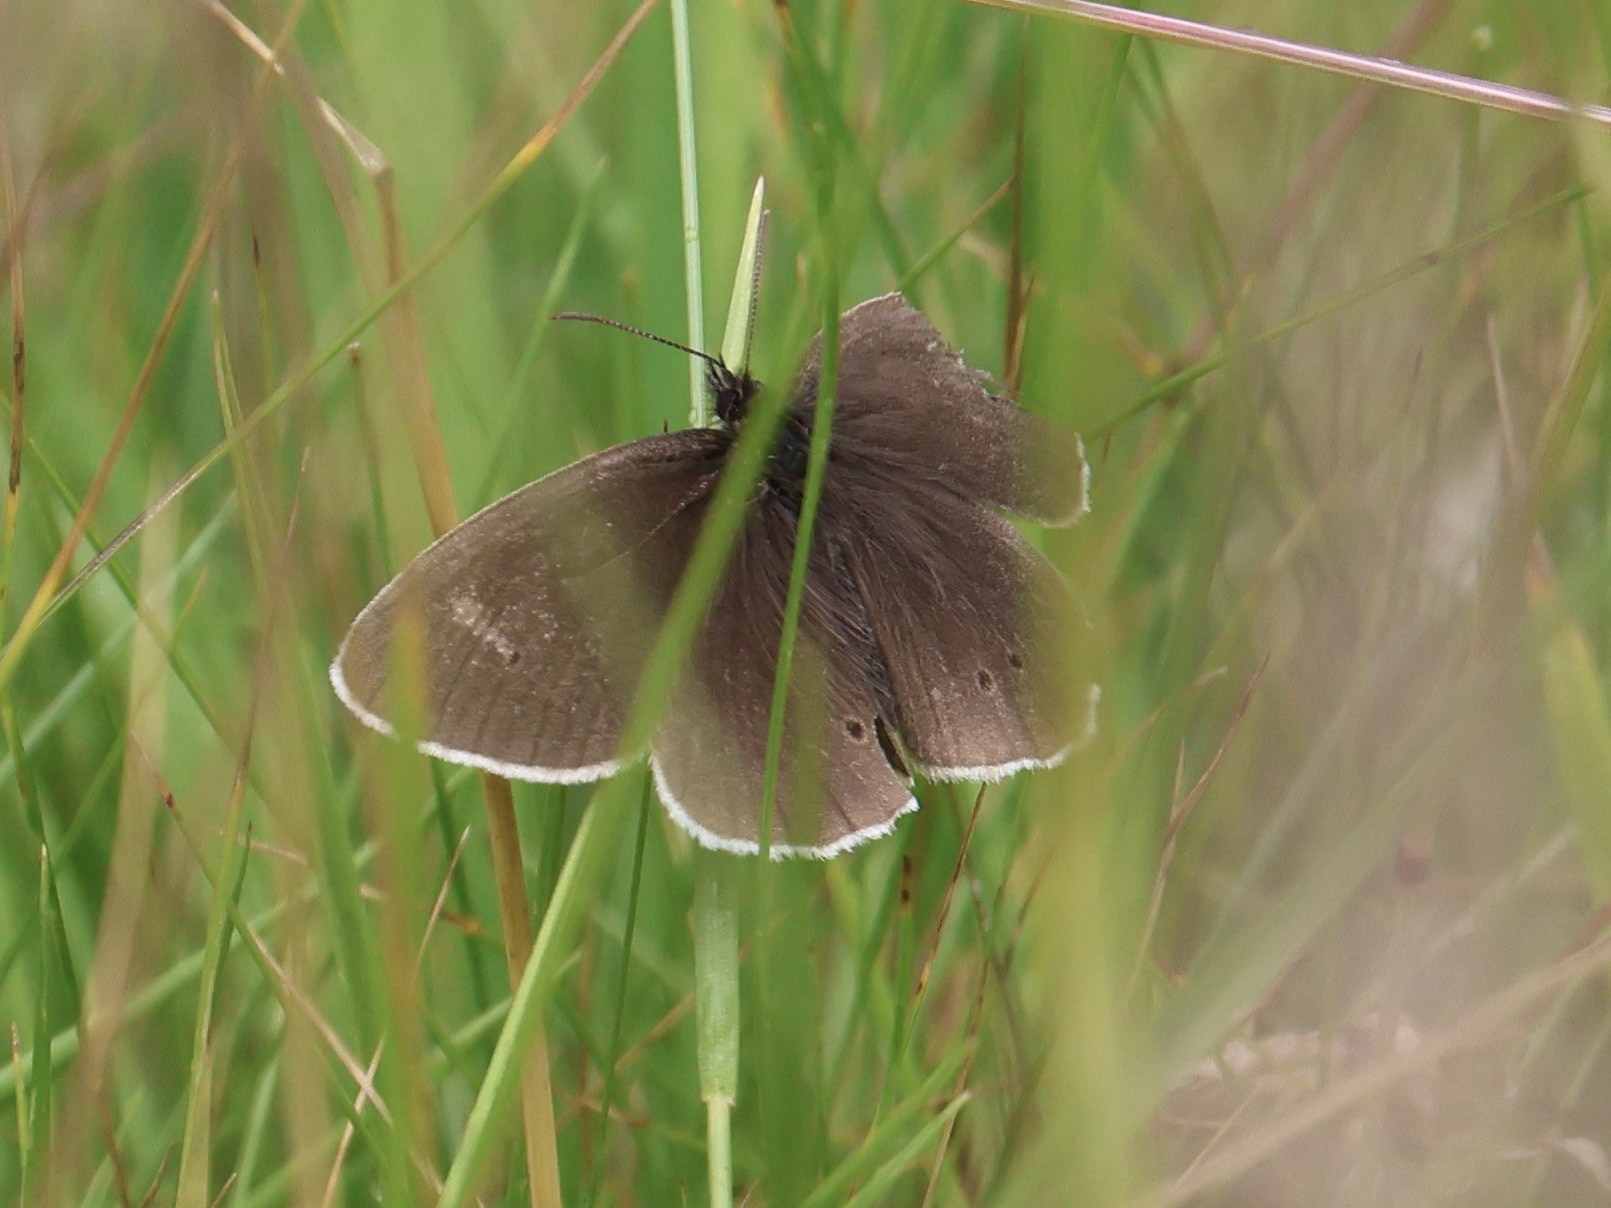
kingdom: Animalia
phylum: Arthropoda
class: Insecta
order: Lepidoptera
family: Nymphalidae
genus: Aphantopus
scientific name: Aphantopus hyperantus
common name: Ringlet
